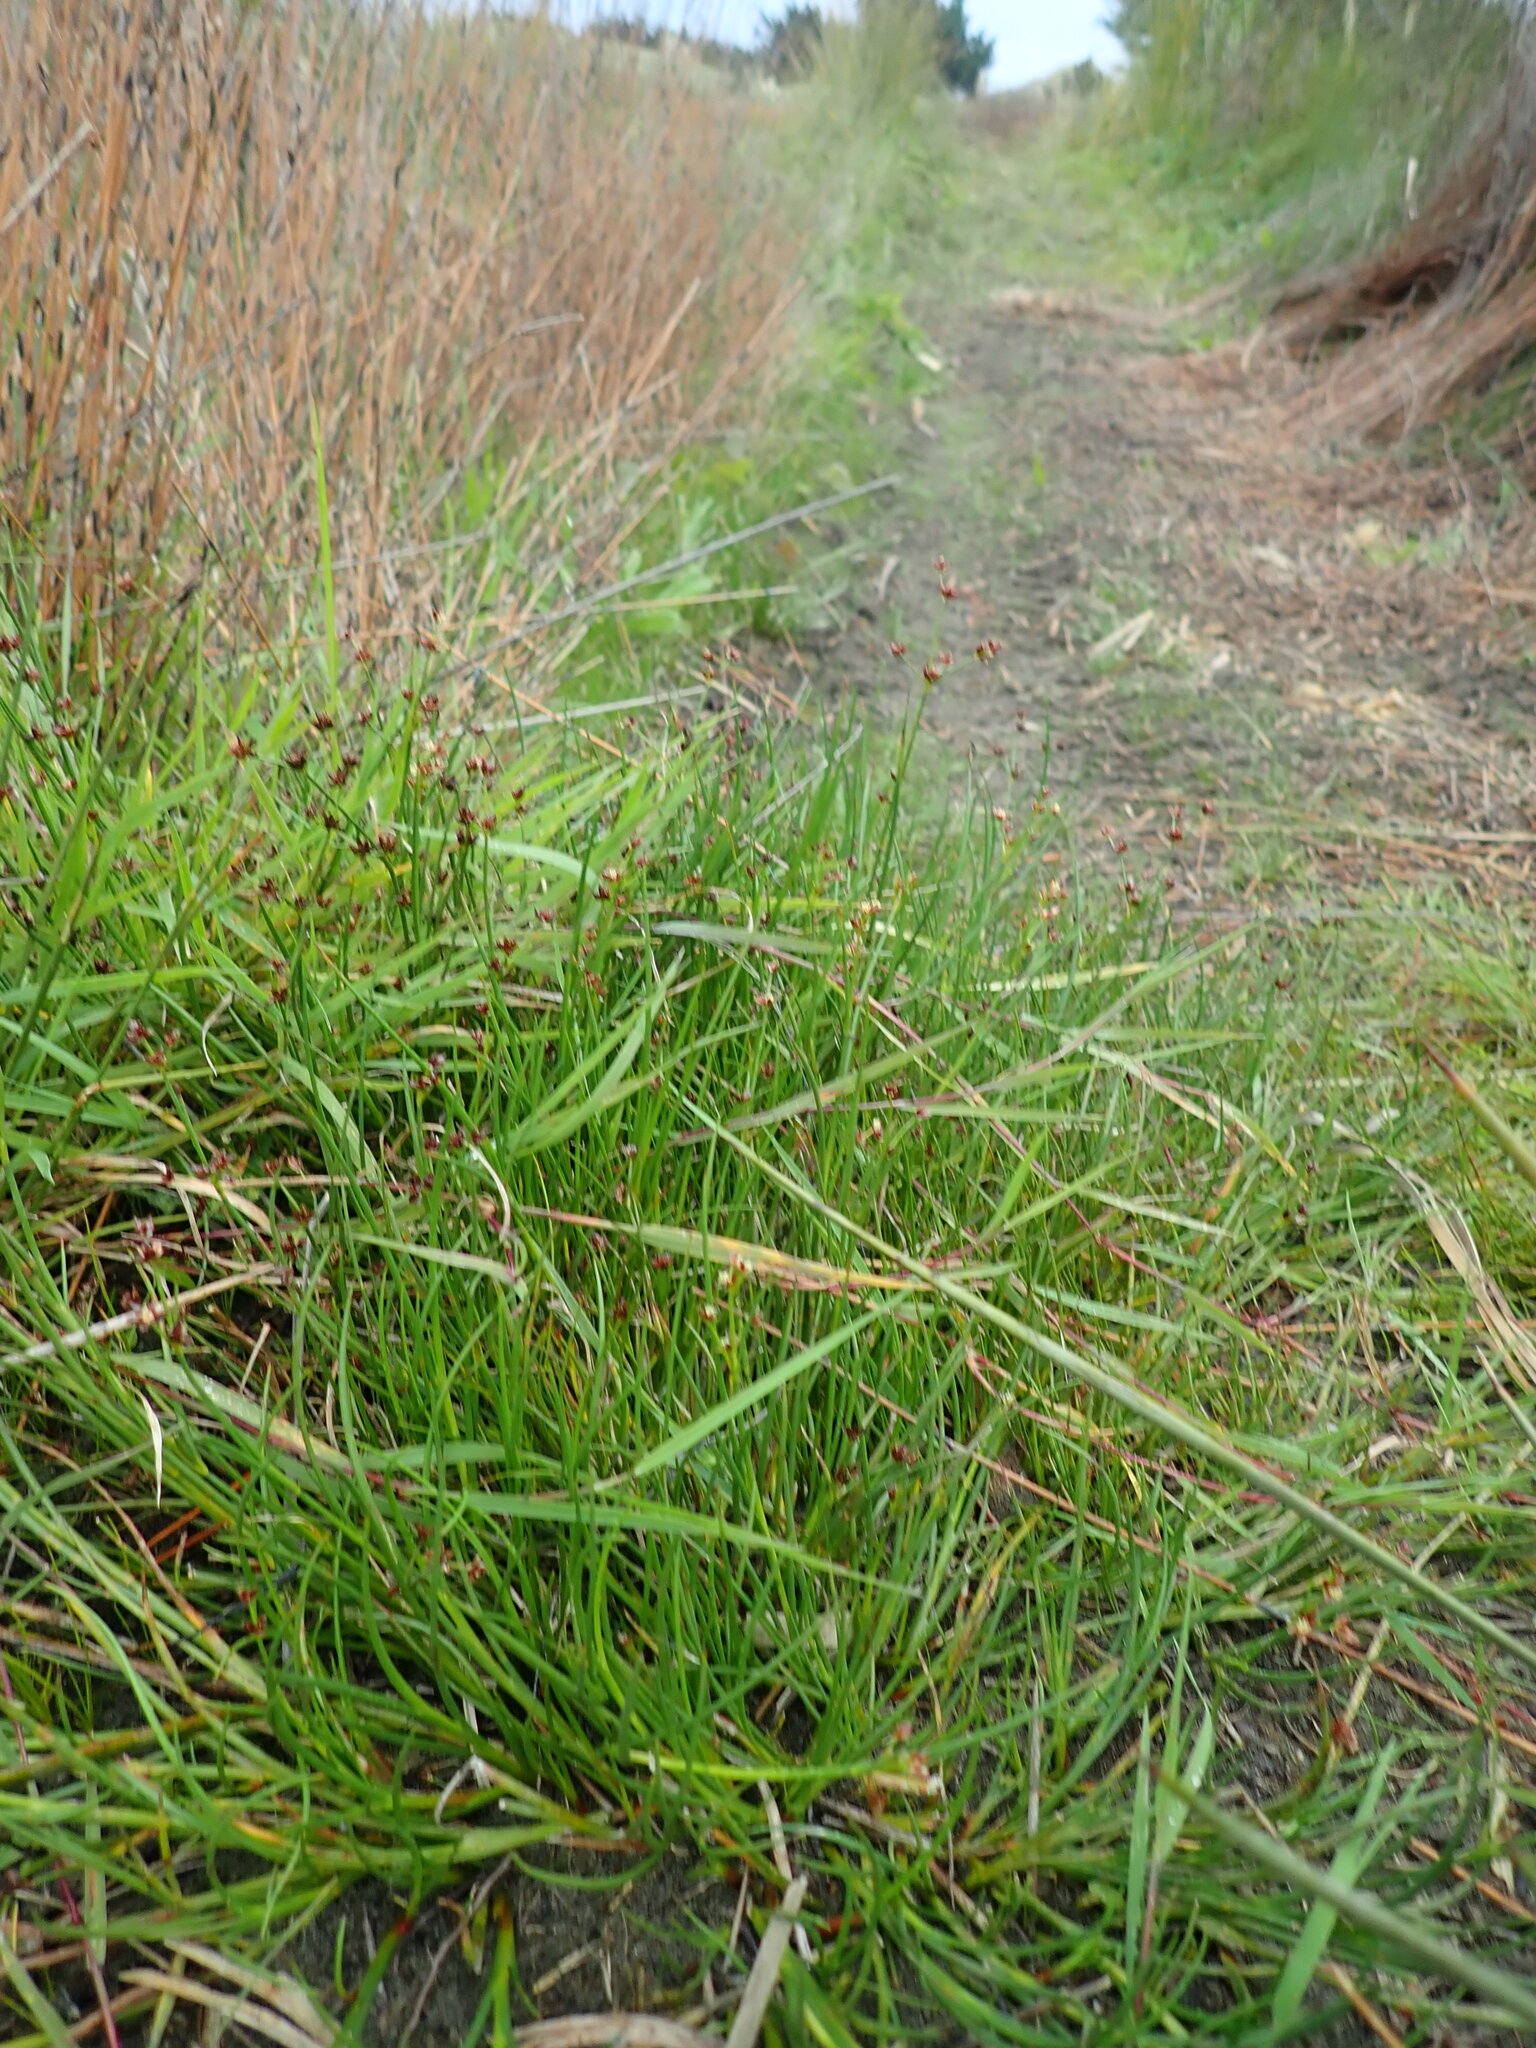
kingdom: Plantae
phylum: Tracheophyta
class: Liliopsida
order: Poales
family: Juncaceae
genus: Juncus
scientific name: Juncus articulatus
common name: Jointed rush
